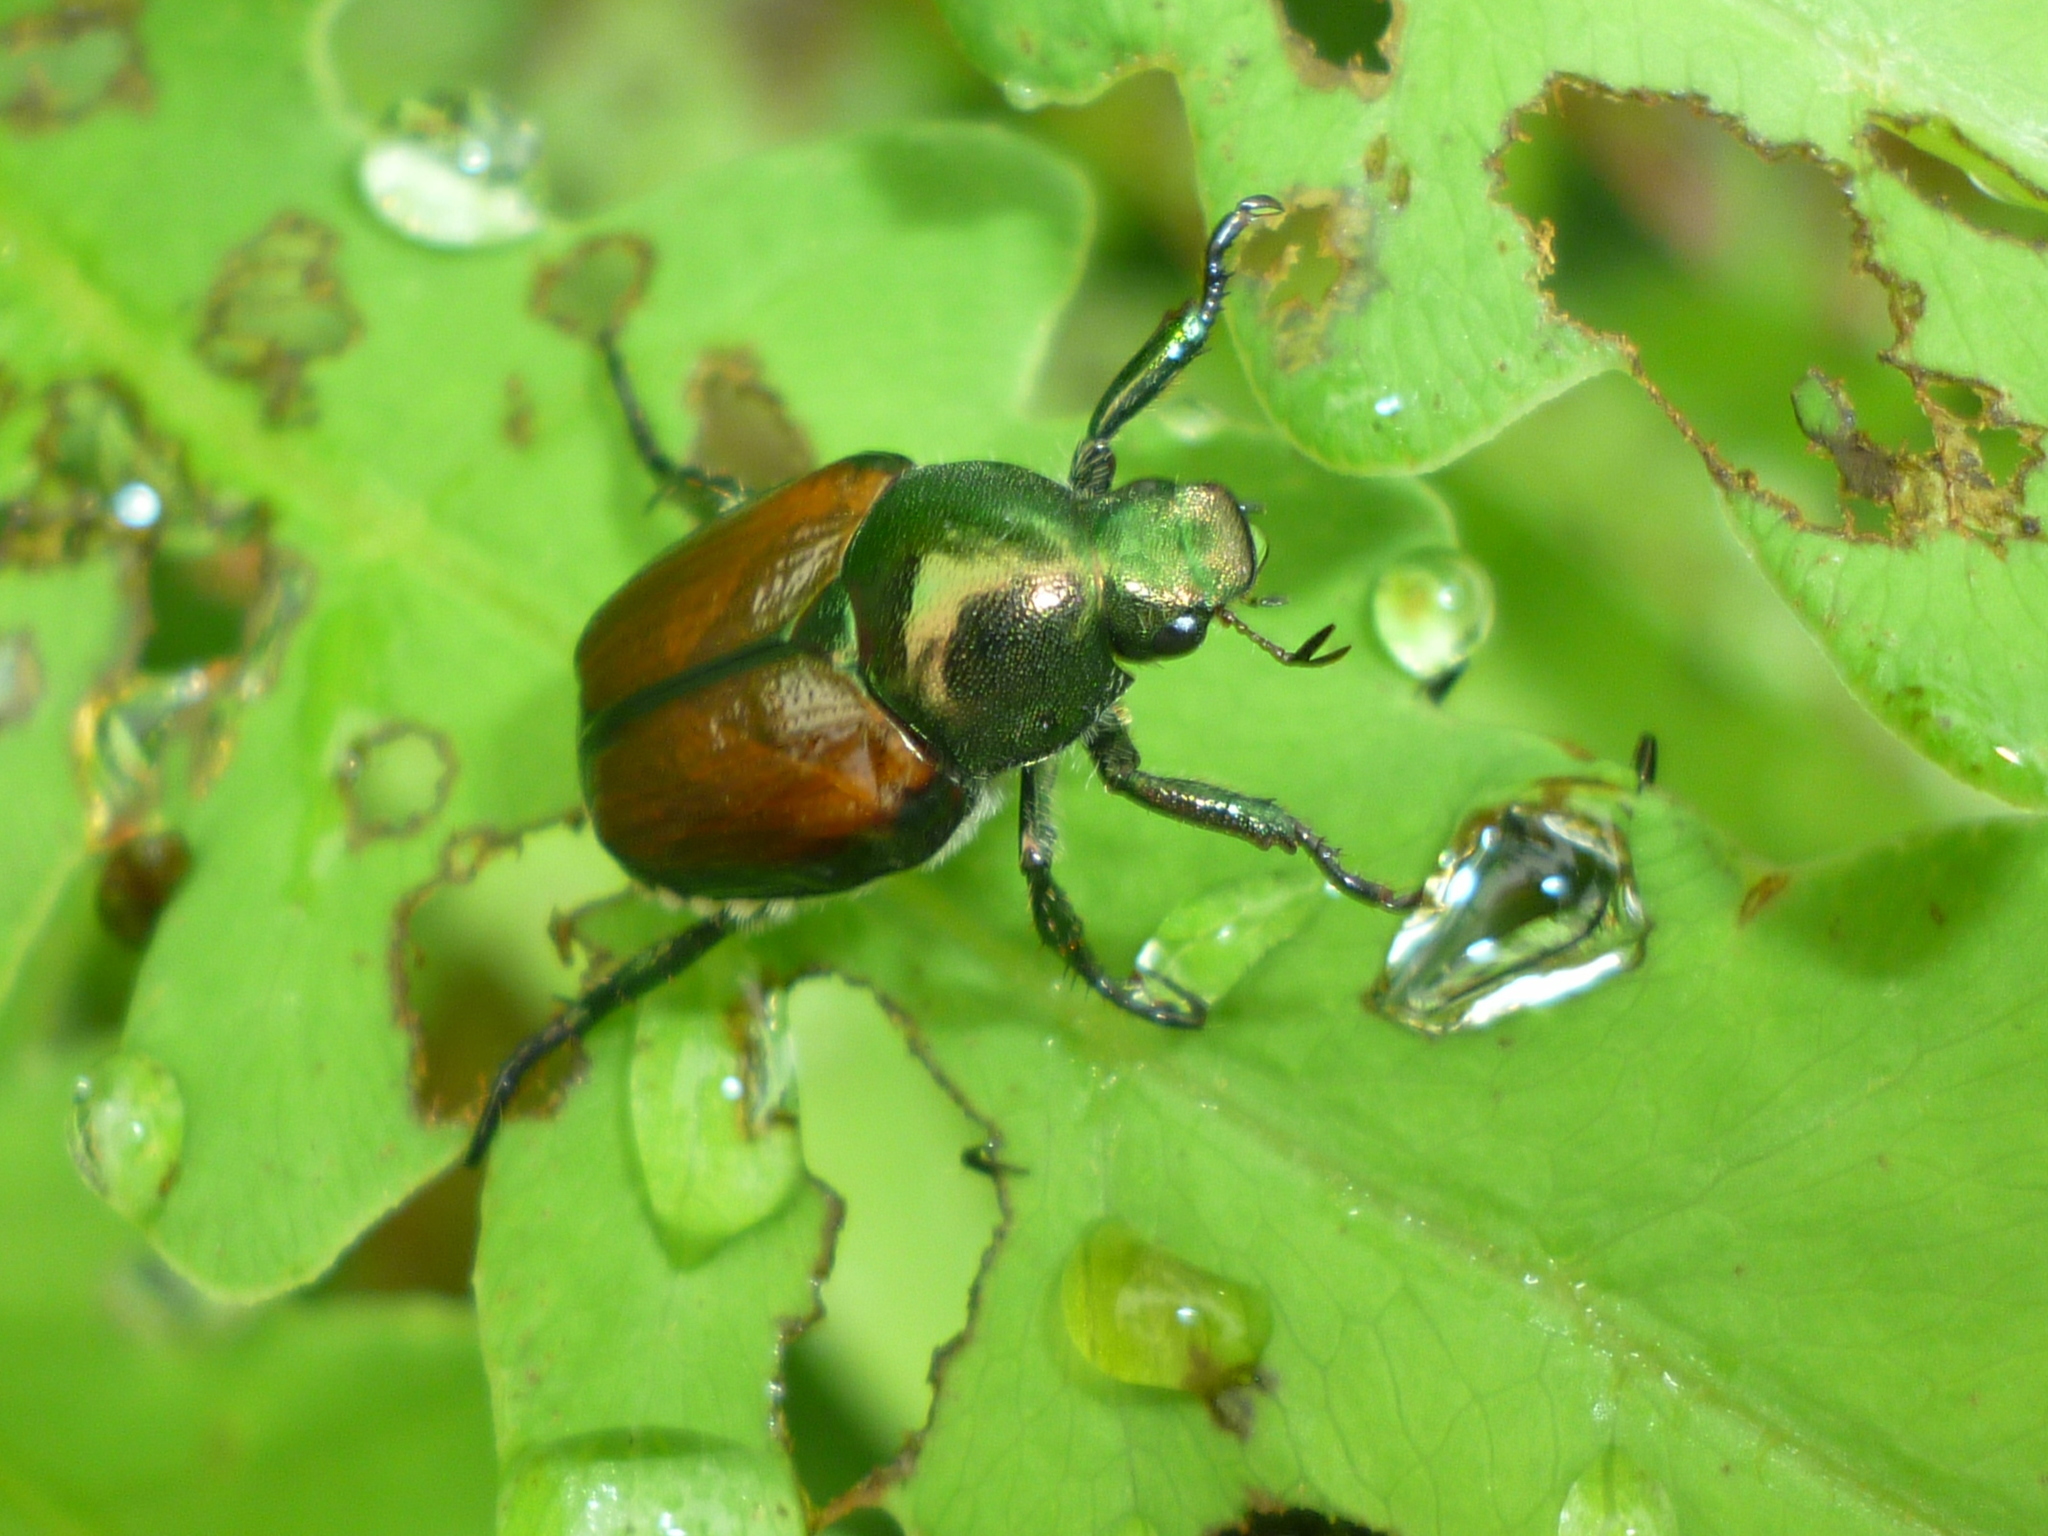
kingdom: Animalia
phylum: Arthropoda
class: Insecta
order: Coleoptera
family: Scarabaeidae
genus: Popillia
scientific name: Popillia japonica
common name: Japanese beetle
